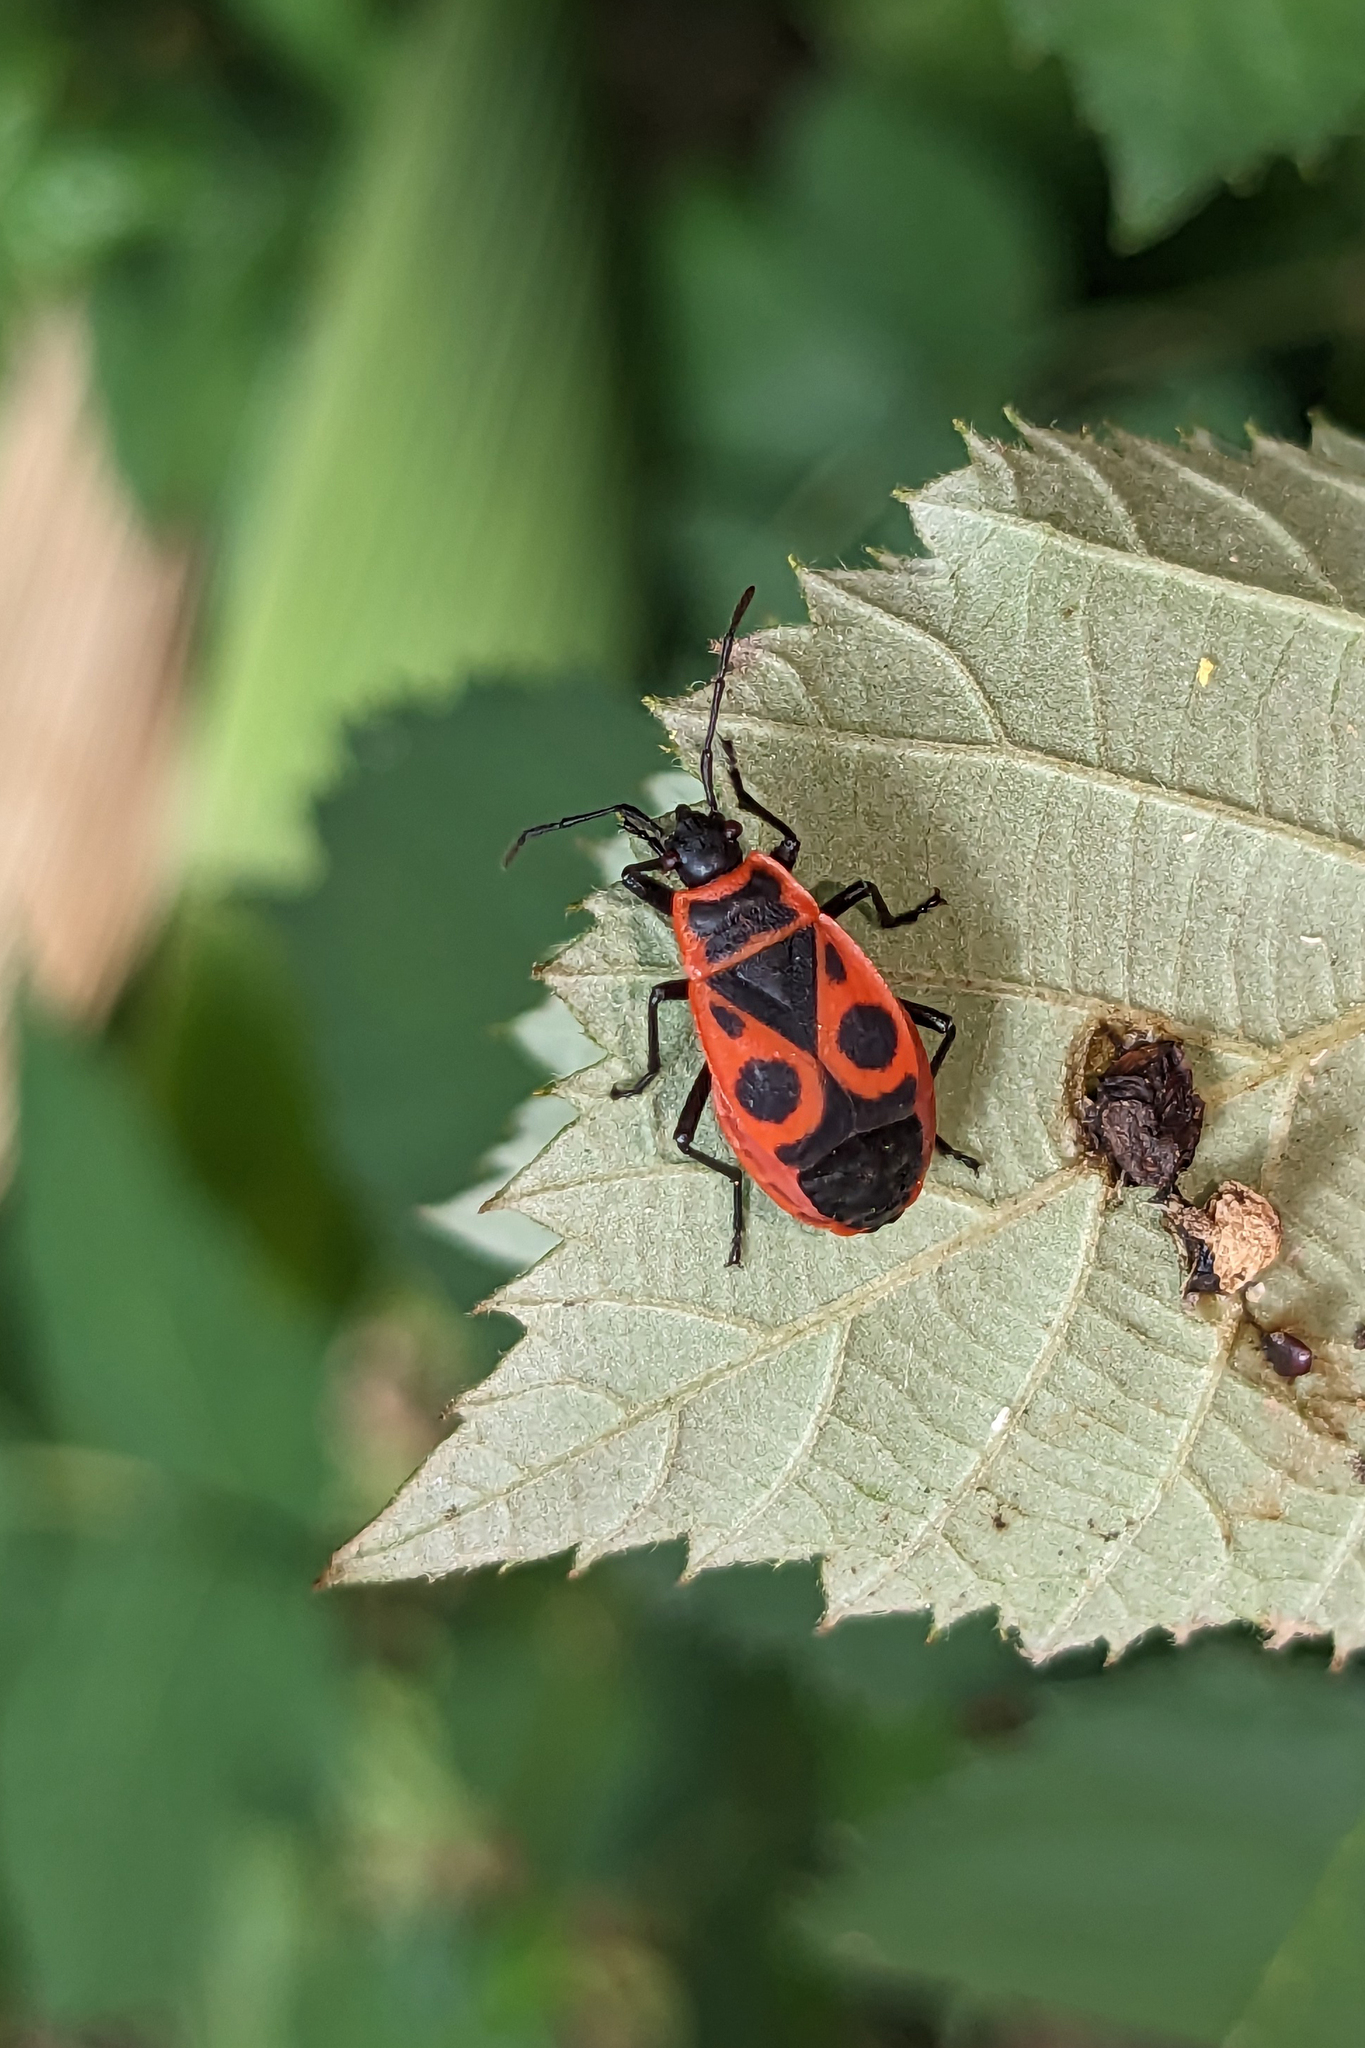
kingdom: Animalia
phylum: Arthropoda
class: Insecta
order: Hemiptera
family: Pyrrhocoridae
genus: Pyrrhocoris
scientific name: Pyrrhocoris apterus
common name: Firebug
